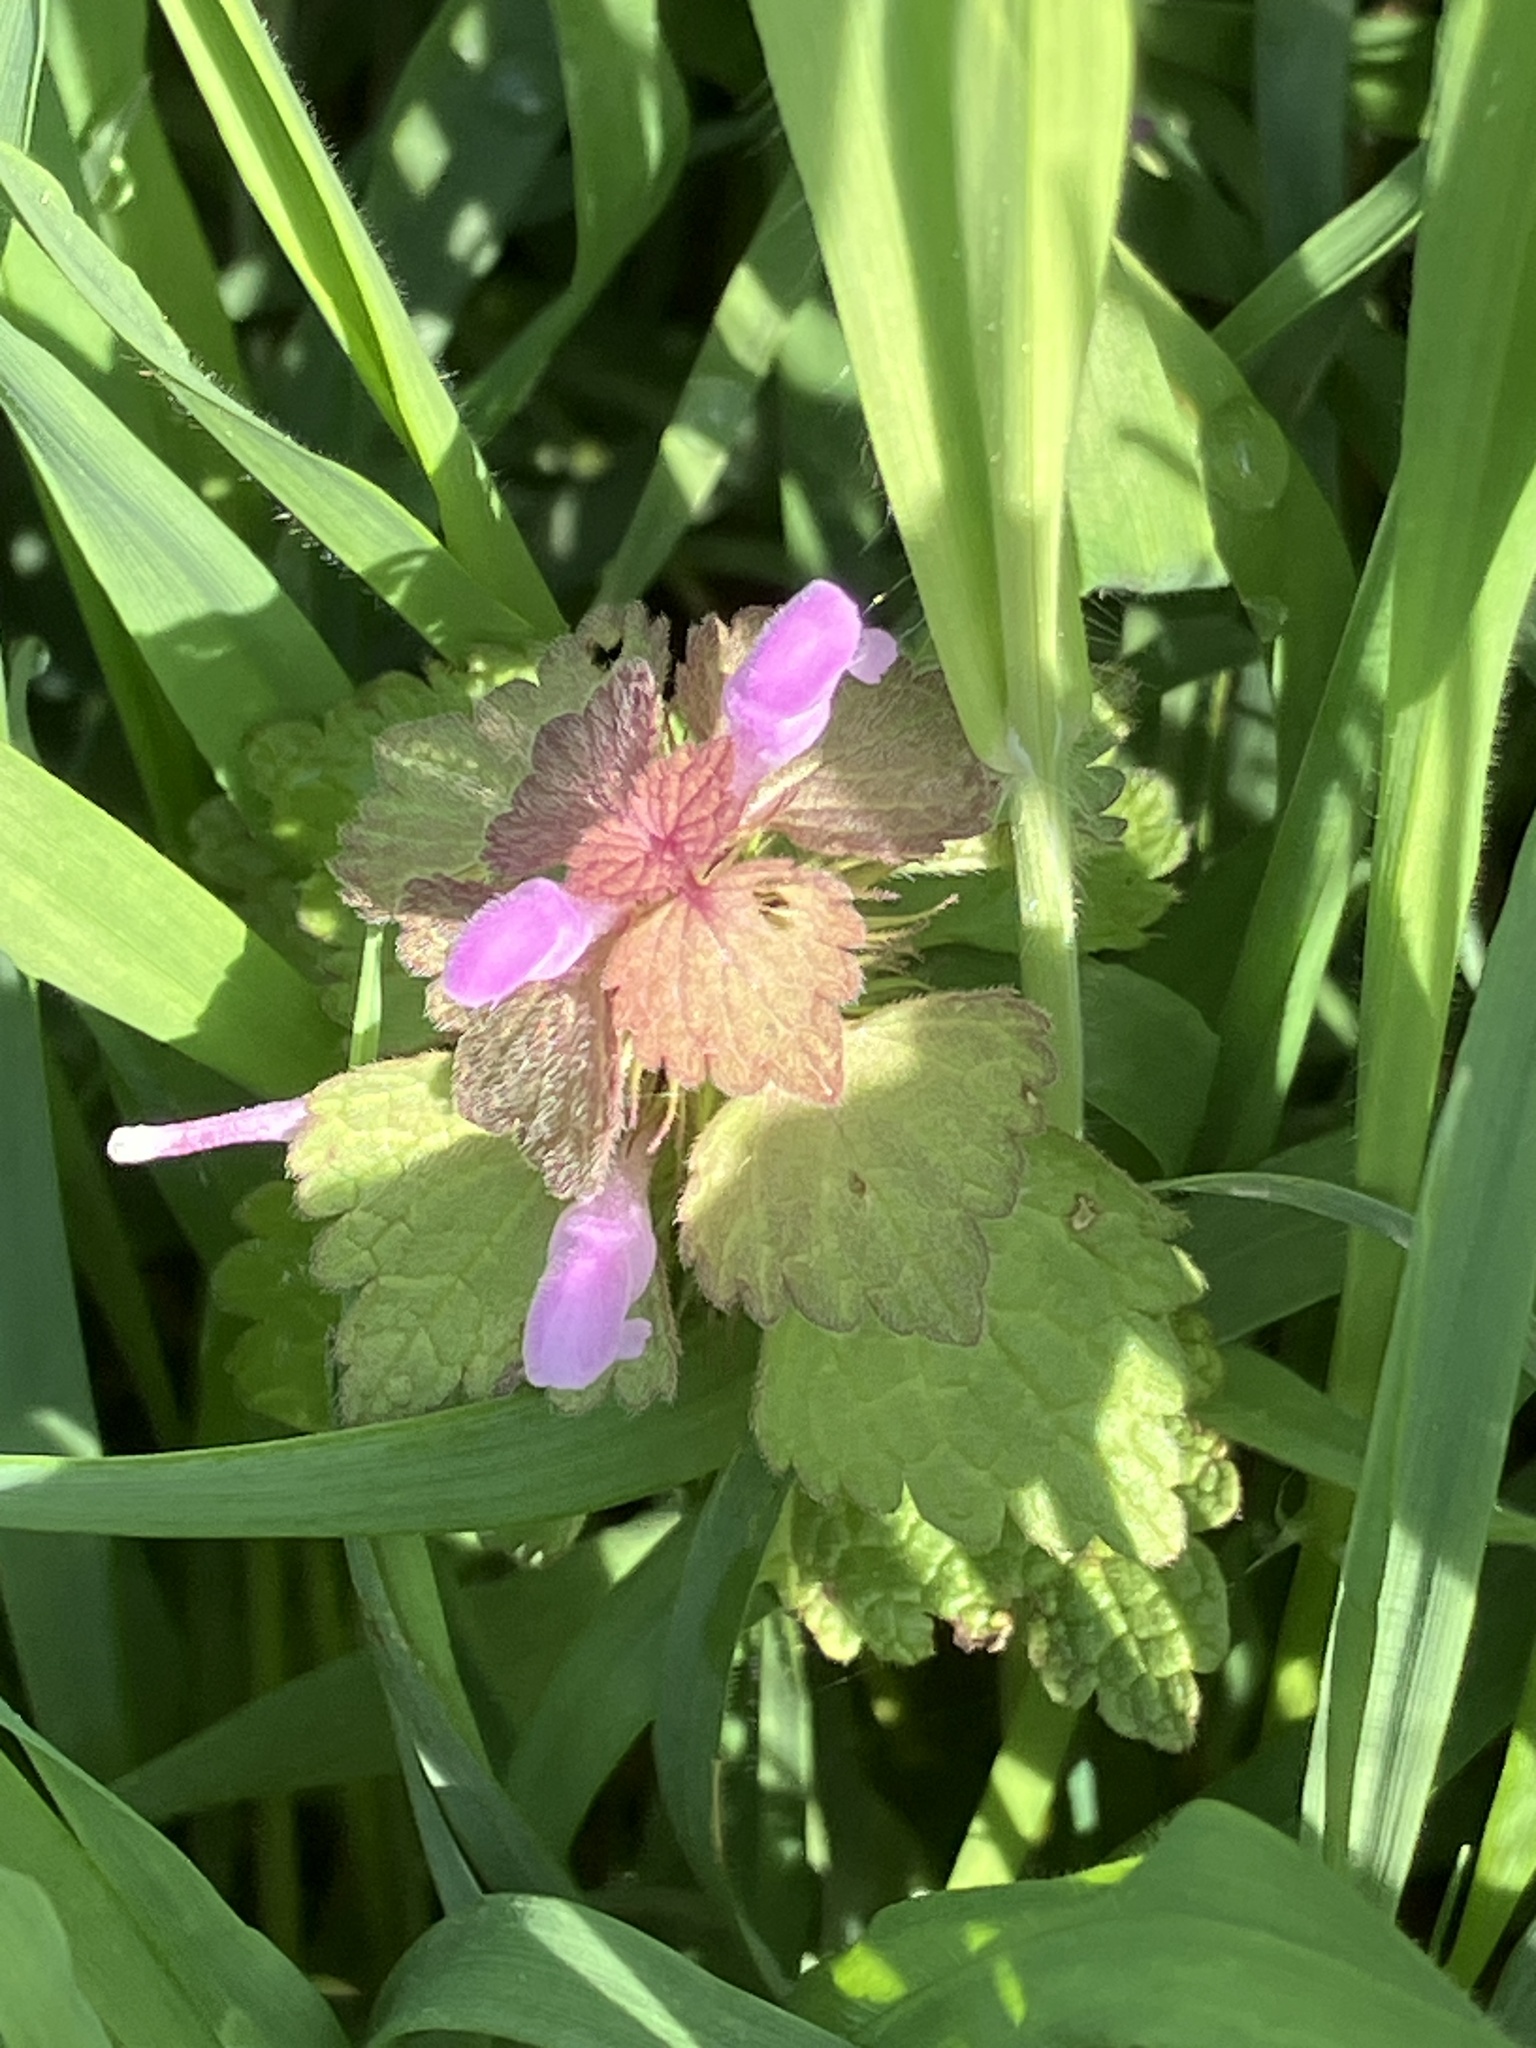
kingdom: Plantae
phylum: Tracheophyta
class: Magnoliopsida
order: Lamiales
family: Lamiaceae
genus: Lamium
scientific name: Lamium purpureum
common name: Red dead-nettle
